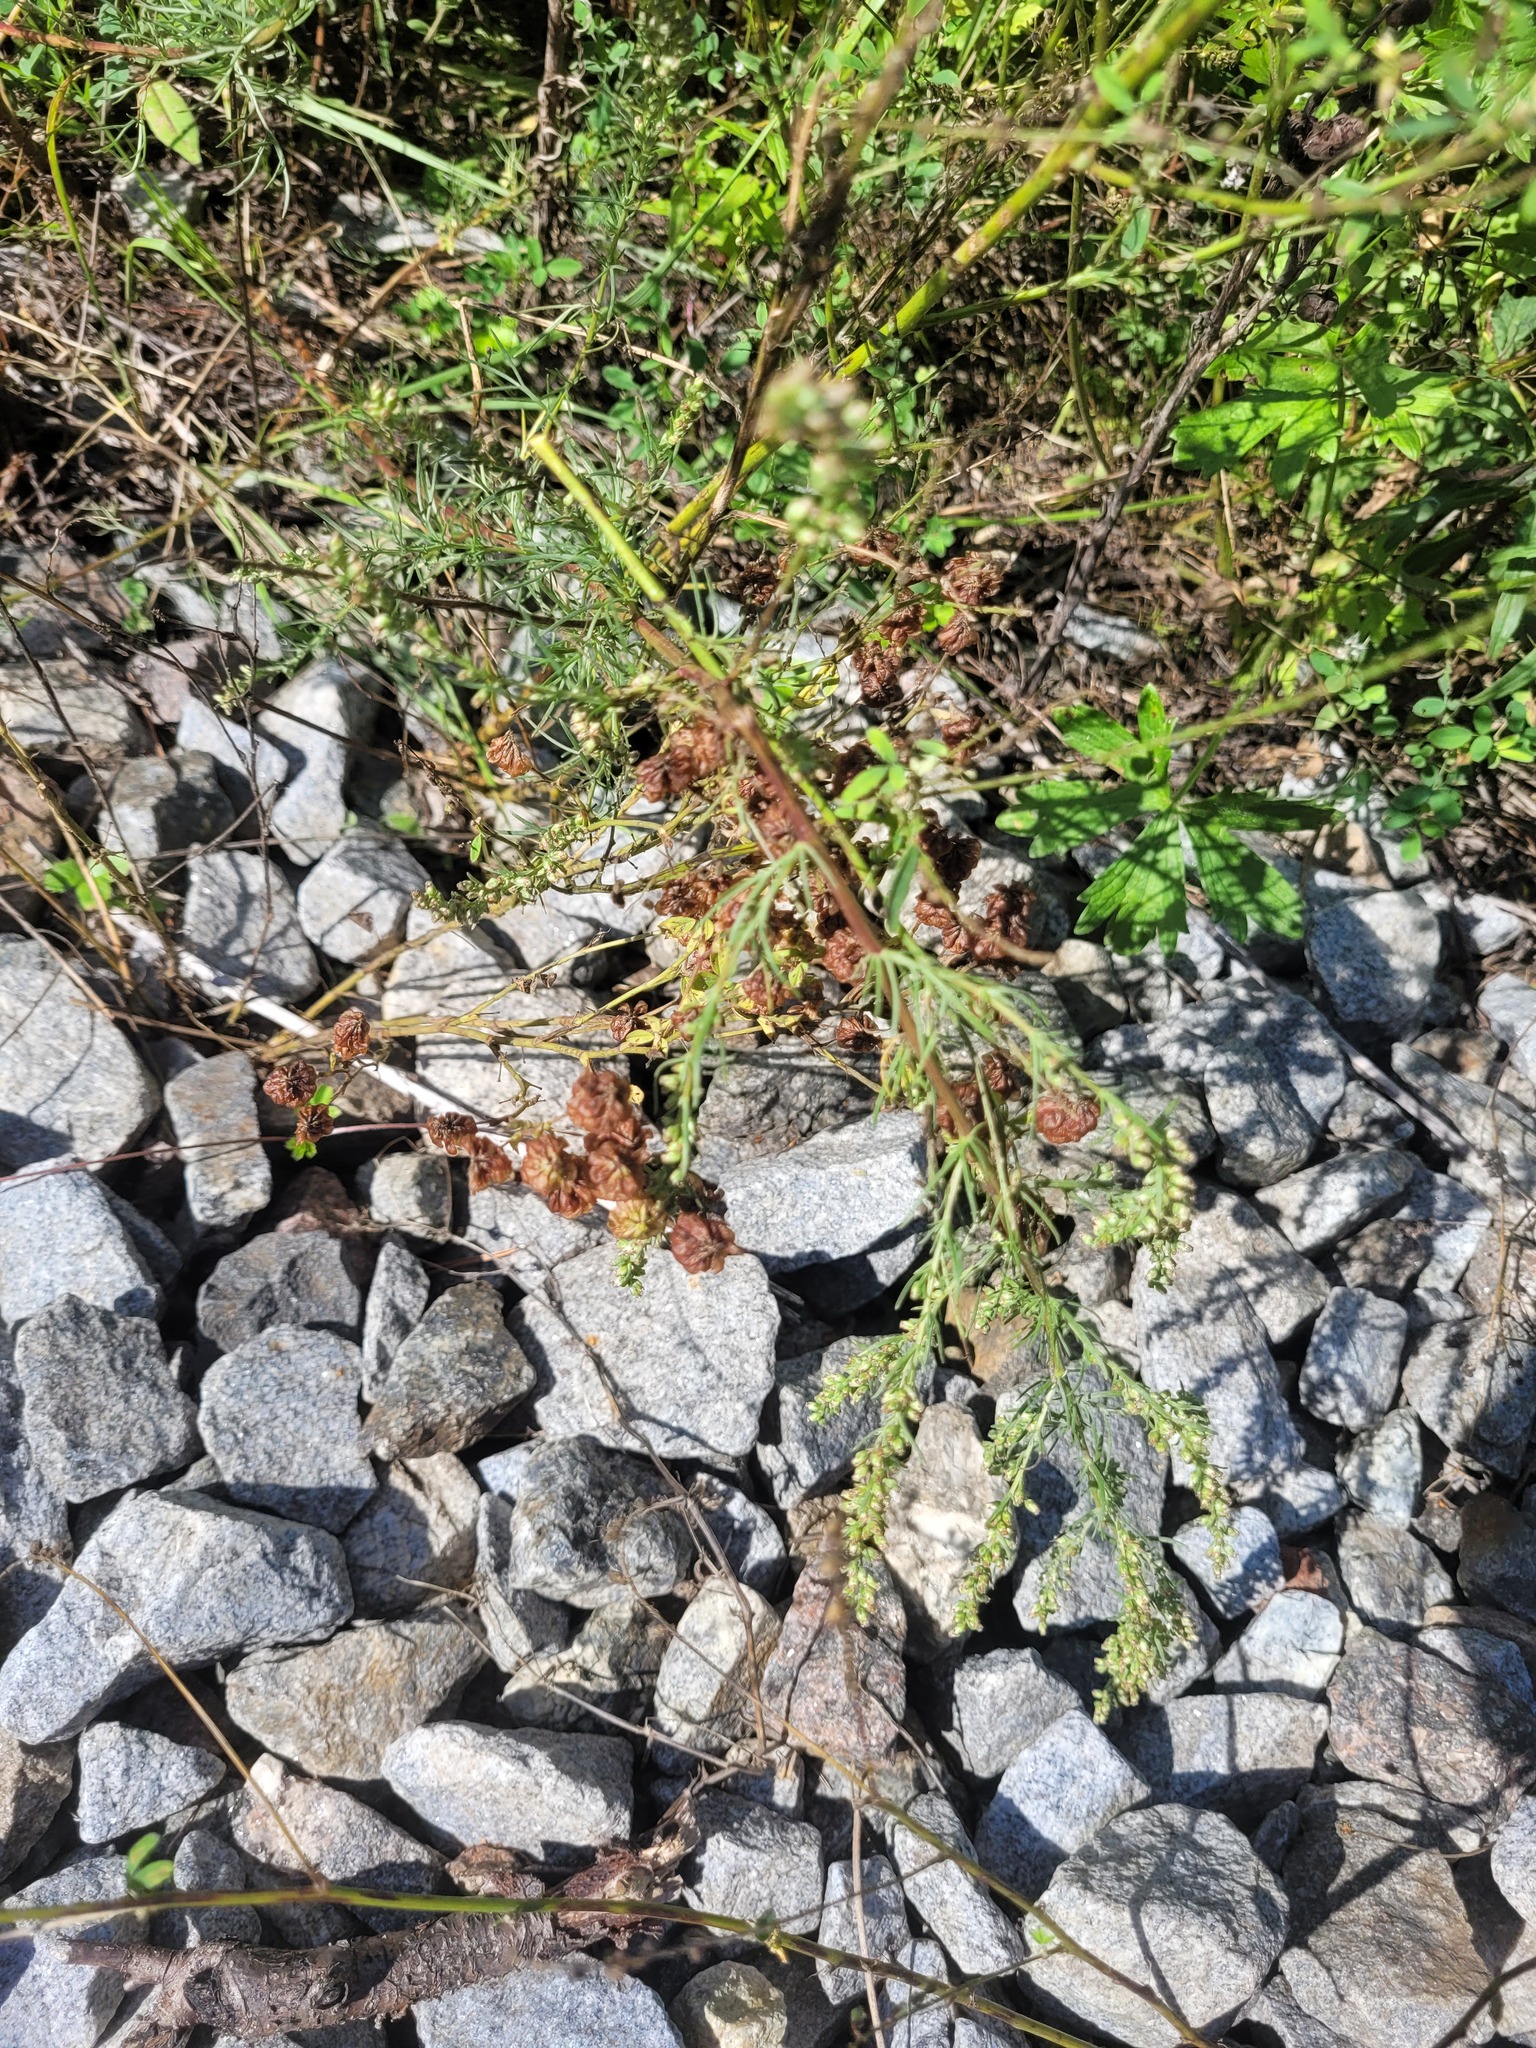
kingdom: Plantae
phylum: Tracheophyta
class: Magnoliopsida
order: Fabales
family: Fabaceae
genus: Trifolium
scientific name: Trifolium aureum
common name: Golden clover
